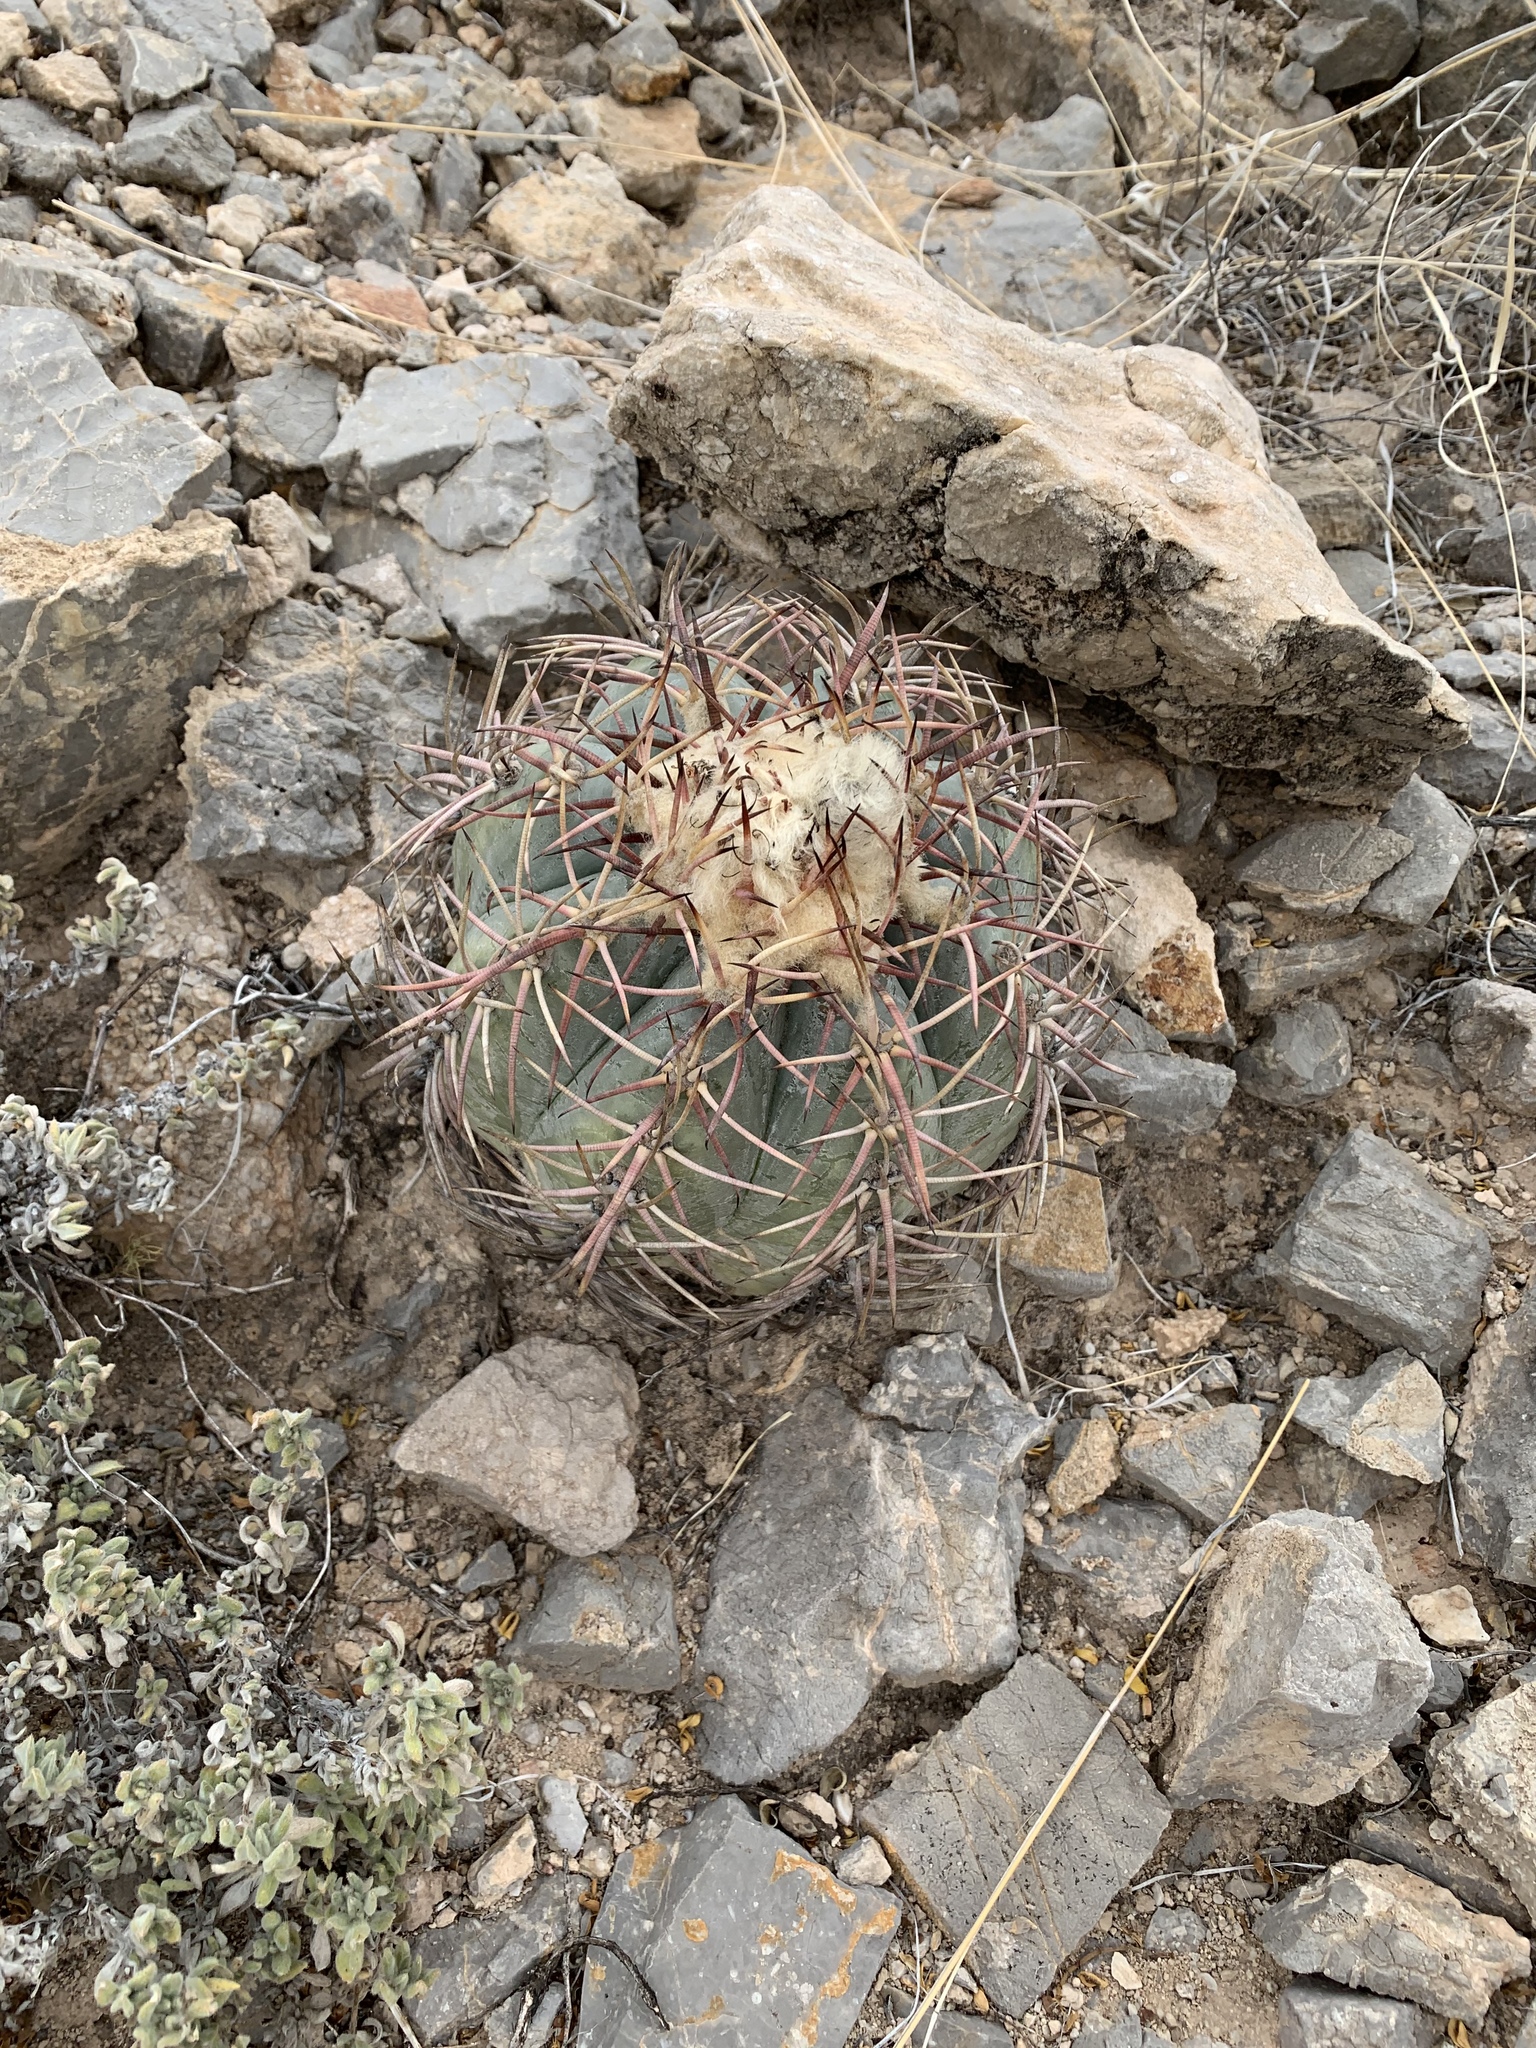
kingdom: Plantae
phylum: Tracheophyta
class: Magnoliopsida
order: Caryophyllales
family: Cactaceae
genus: Echinocactus
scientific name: Echinocactus horizonthalonius
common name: Devilshead
